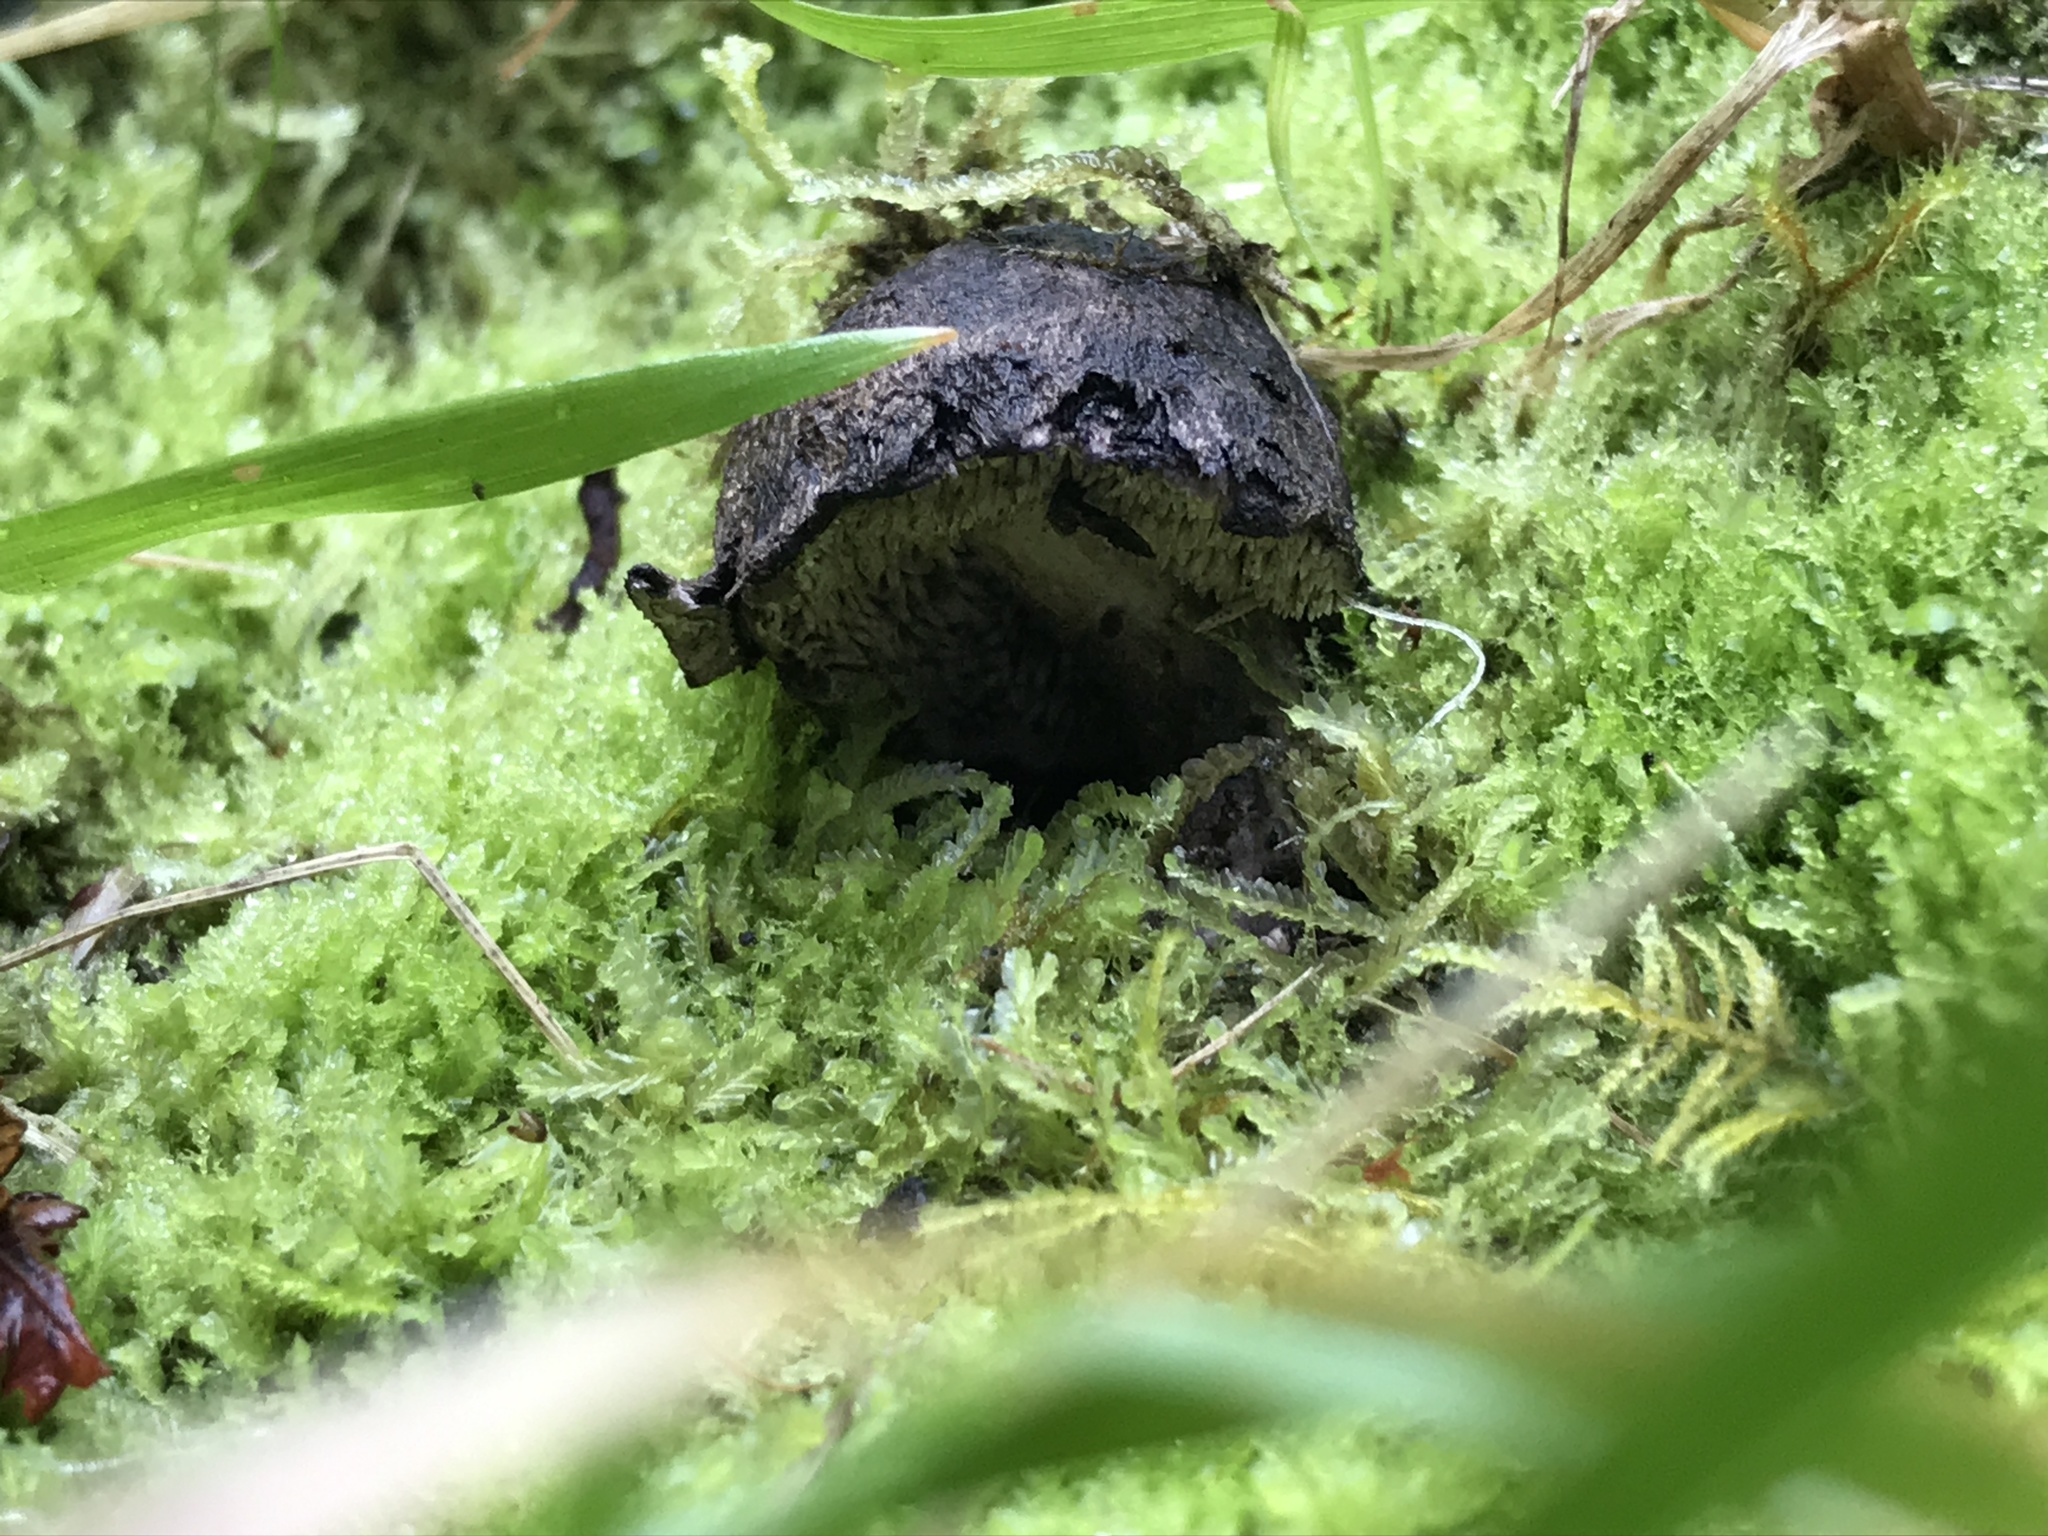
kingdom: Fungi
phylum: Basidiomycota
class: Agaricomycetes
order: Thelephorales
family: Bankeraceae
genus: Sarcodon
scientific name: Sarcodon carbonarius
